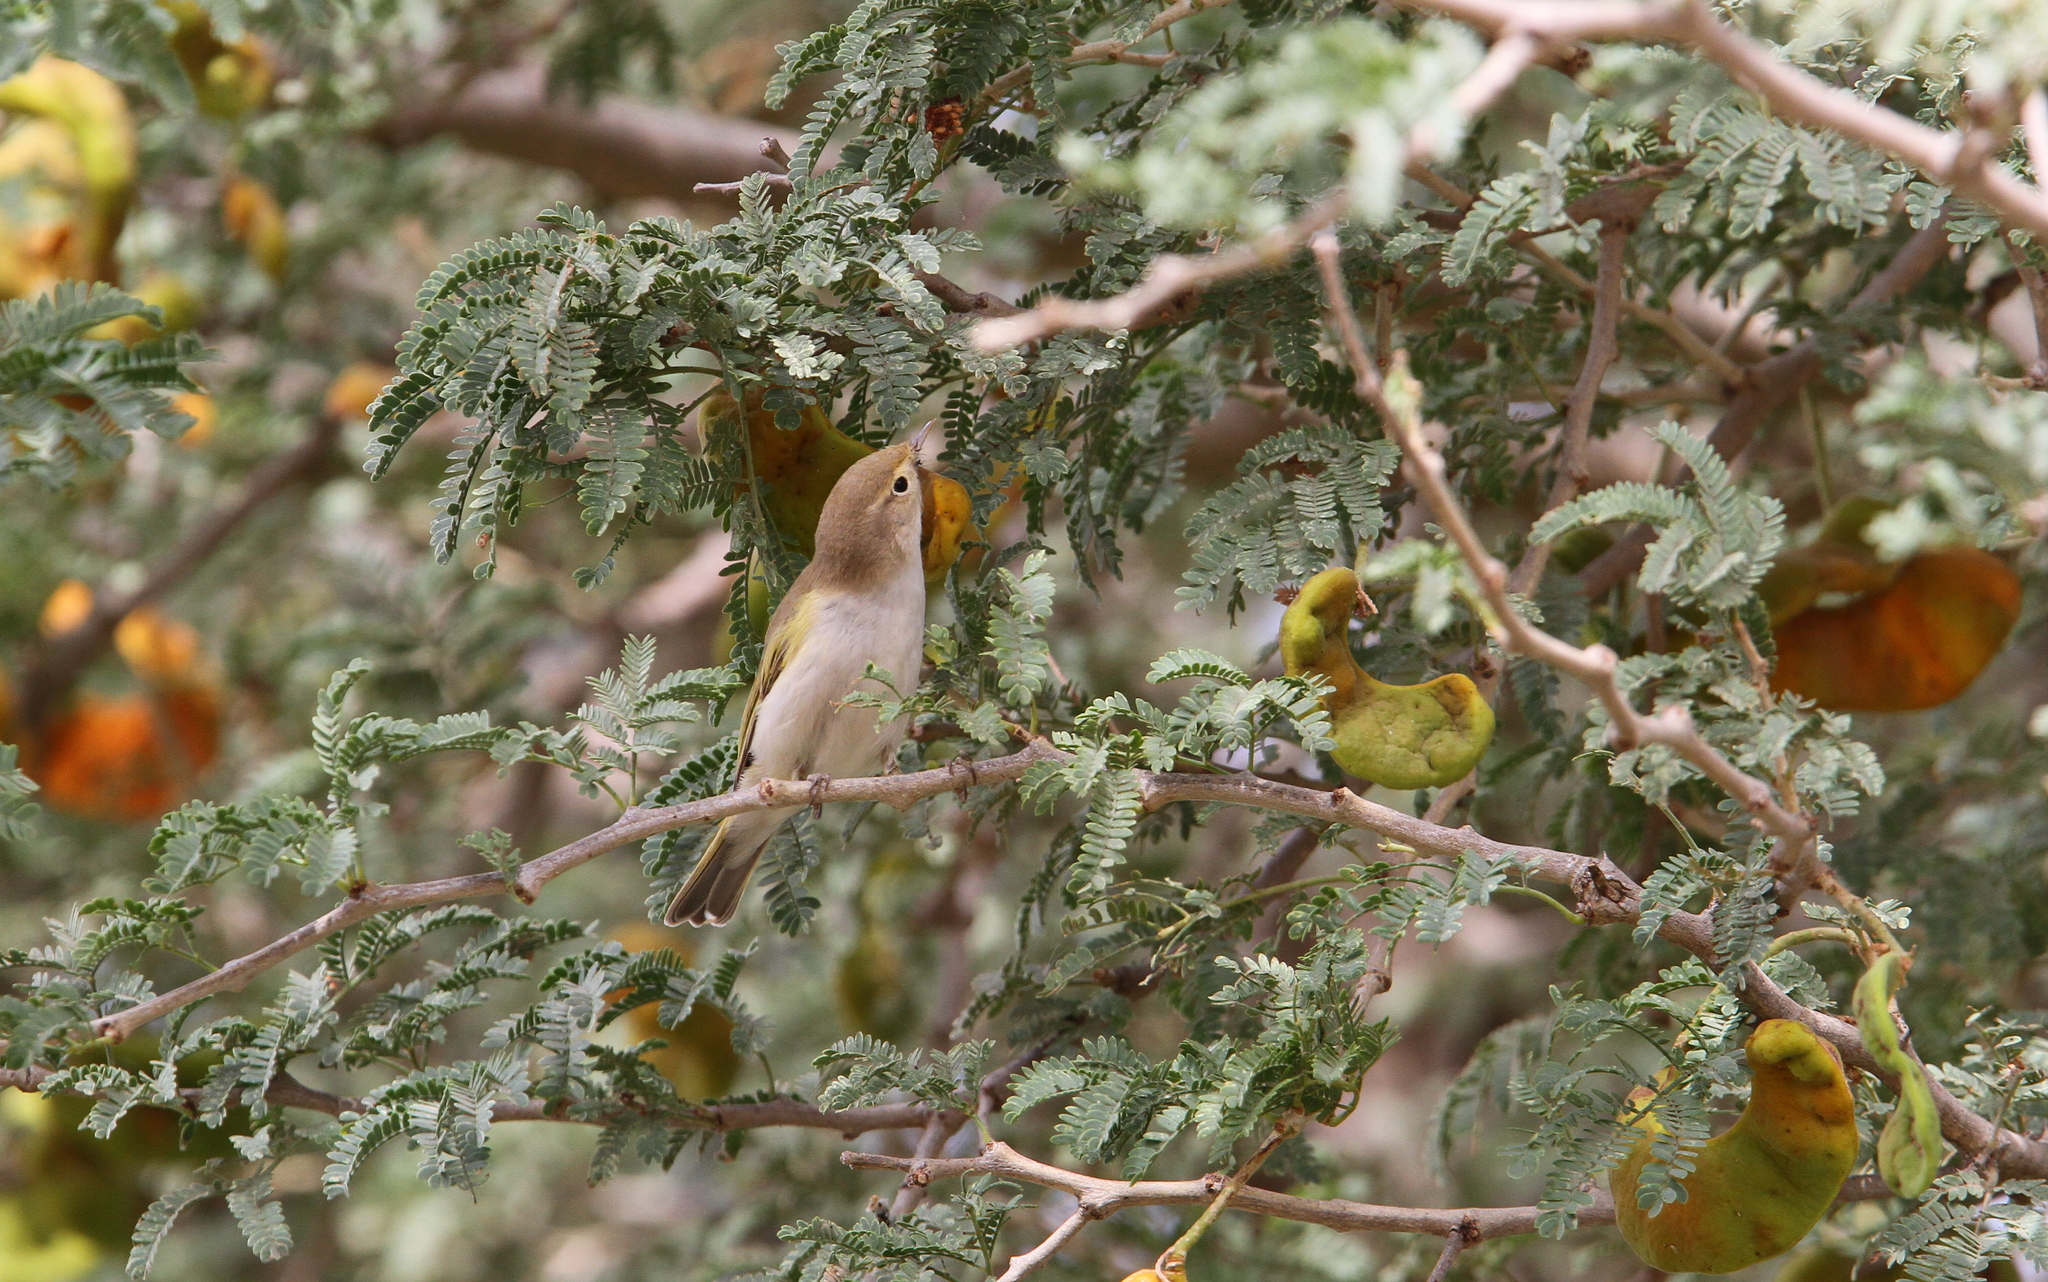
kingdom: Animalia
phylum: Chordata
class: Aves
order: Passeriformes
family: Phylloscopidae
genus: Phylloscopus
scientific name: Phylloscopus bonelli
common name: Western bonelli's warbler
